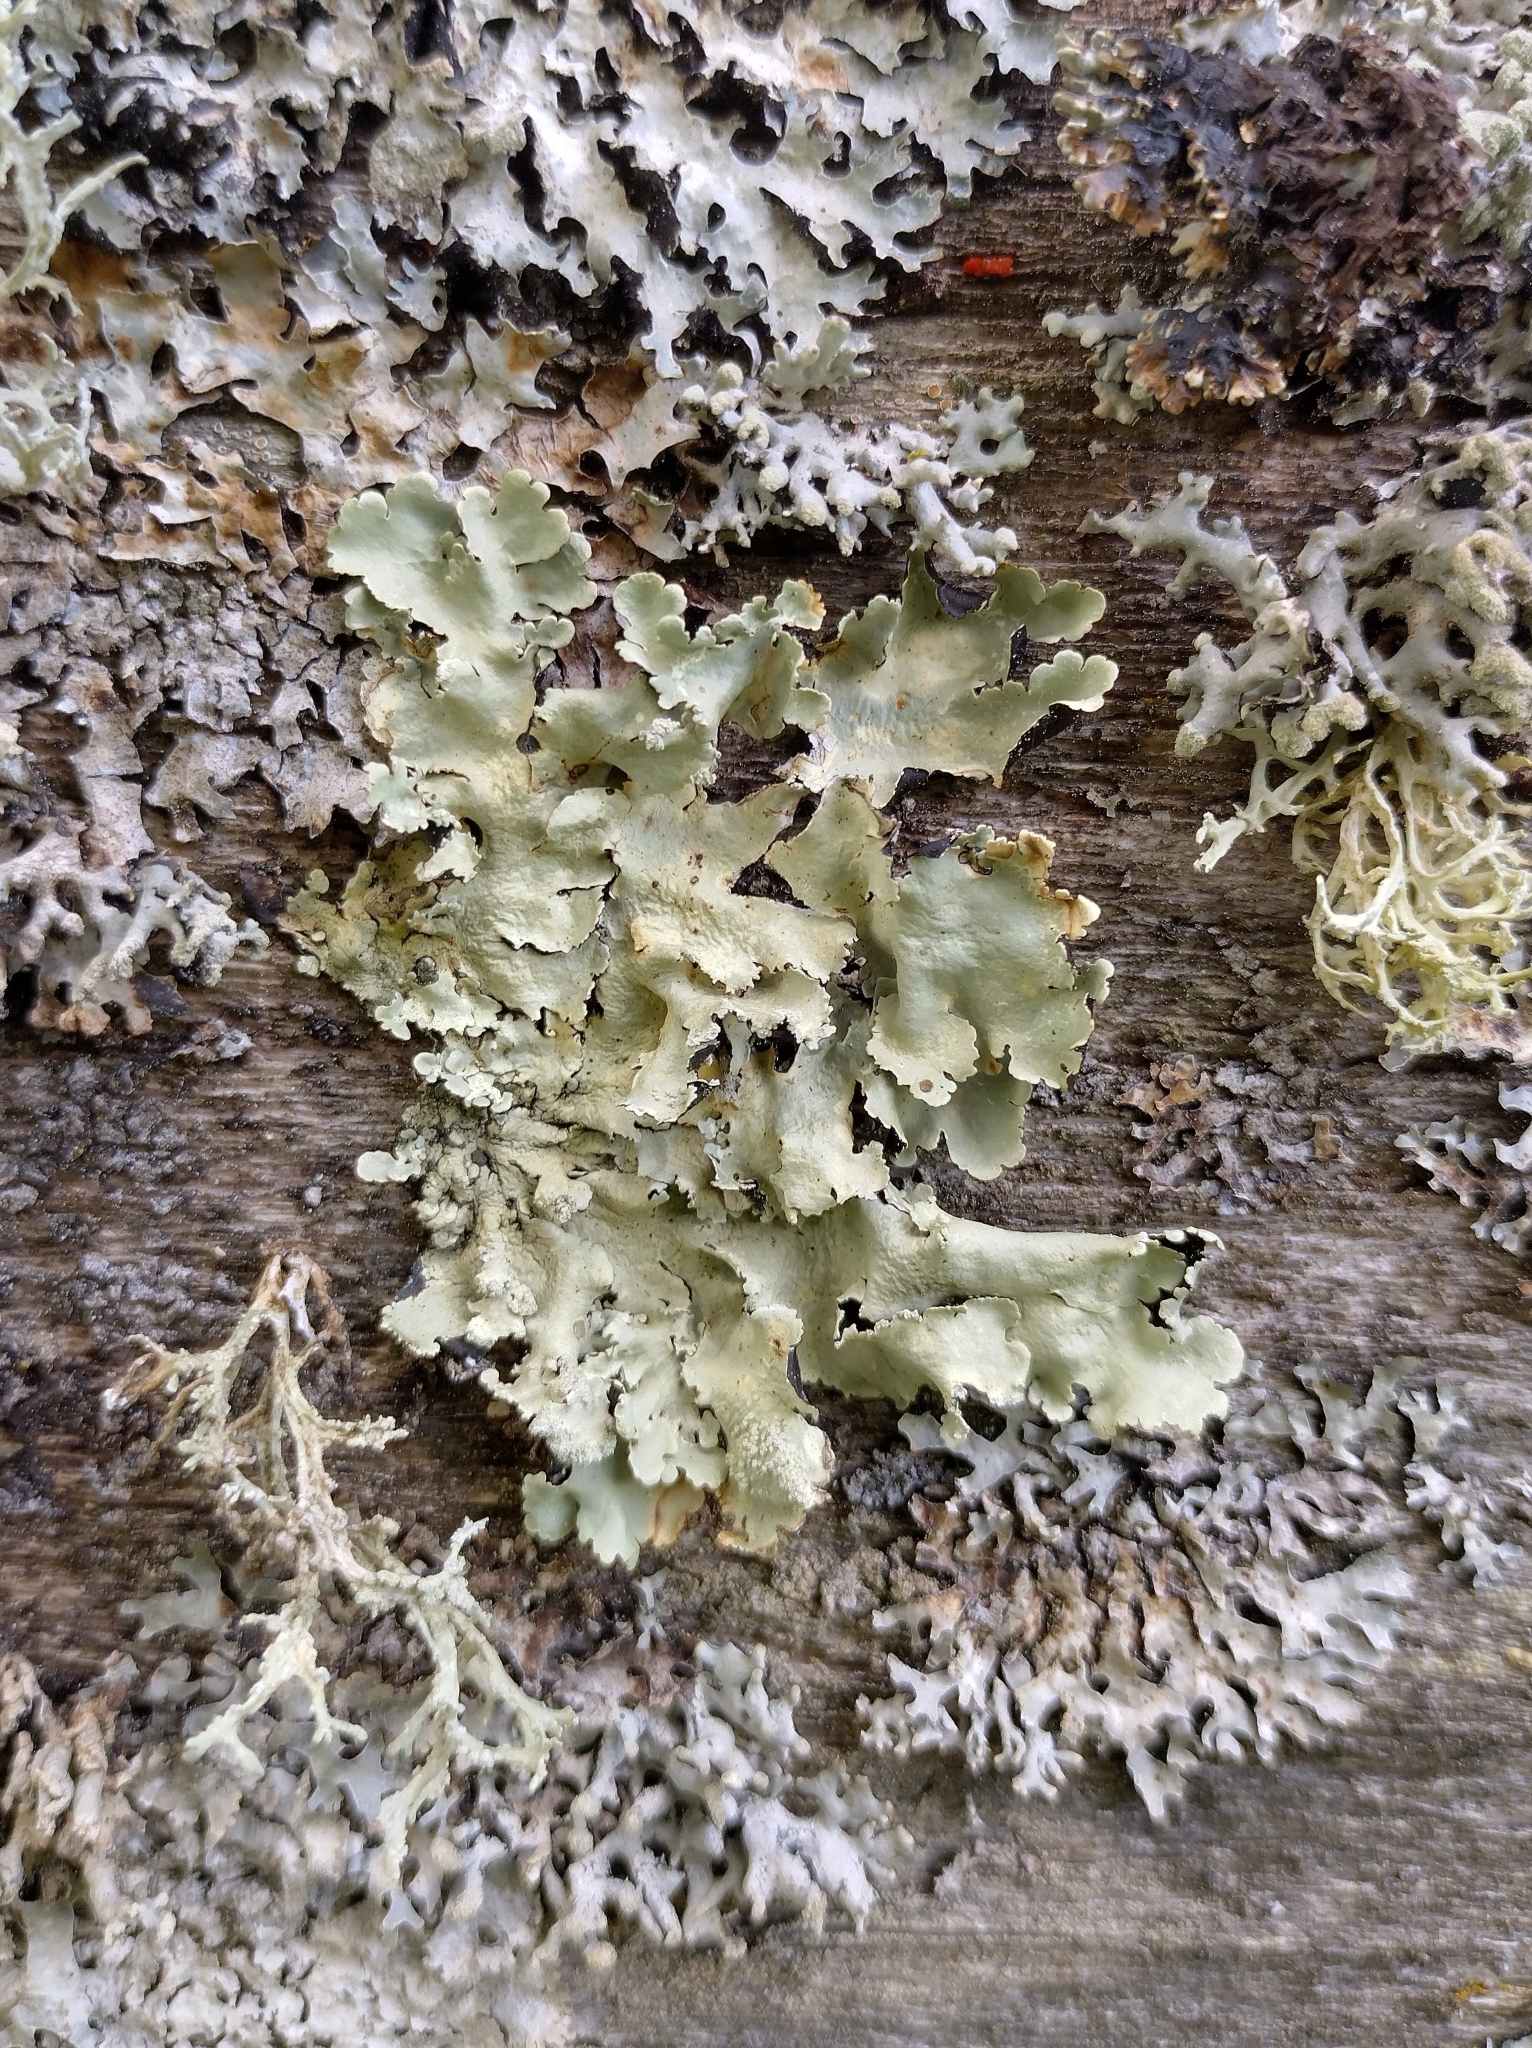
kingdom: Fungi
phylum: Ascomycota
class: Lecanoromycetes
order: Lecanorales
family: Parmeliaceae
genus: Flavoparmelia
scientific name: Flavoparmelia caperata
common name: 40-mile per hour lichen
